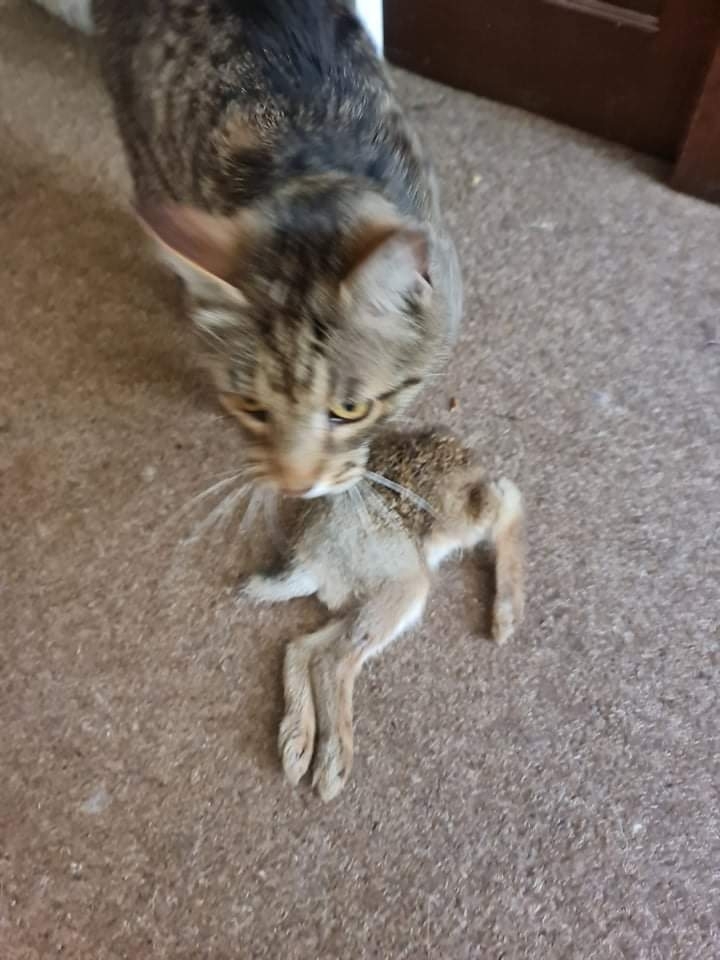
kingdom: Animalia
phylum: Chordata
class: Mammalia
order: Lagomorpha
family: Leporidae
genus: Oryctolagus
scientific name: Oryctolagus cuniculus
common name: European rabbit
